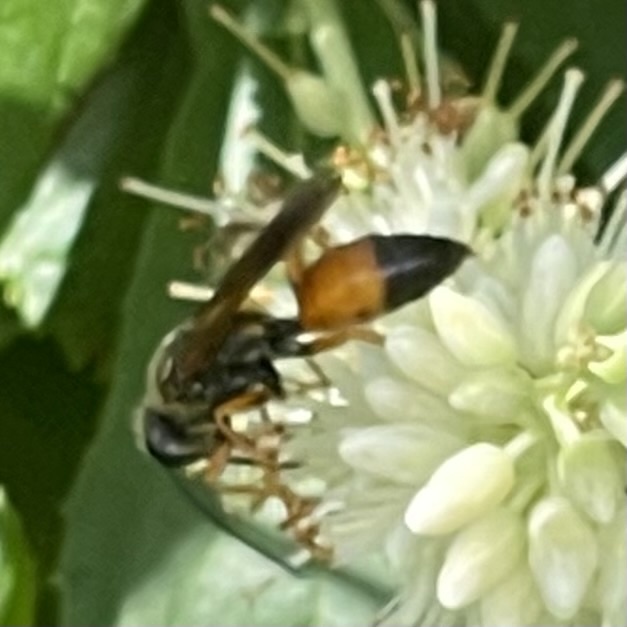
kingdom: Animalia
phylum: Arthropoda
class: Insecta
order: Hymenoptera
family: Sphecidae
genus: Sphex
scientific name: Sphex ichneumoneus
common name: Great golden digger wasp
